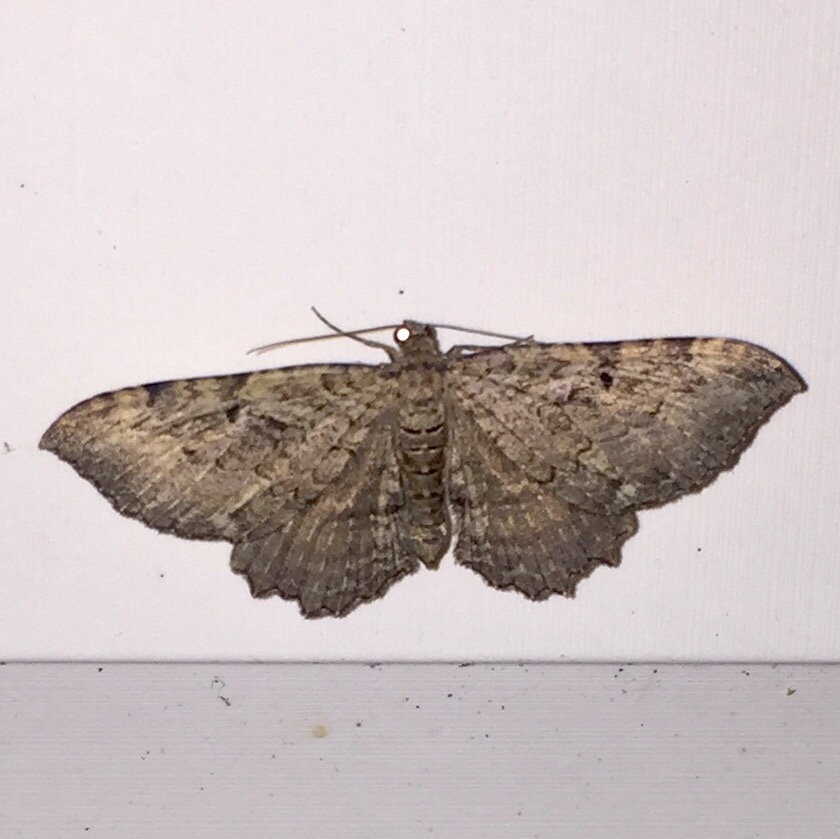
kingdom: Animalia
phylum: Arthropoda
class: Insecta
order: Lepidoptera
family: Geometridae
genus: Rheumaptera
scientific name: Rheumaptera
